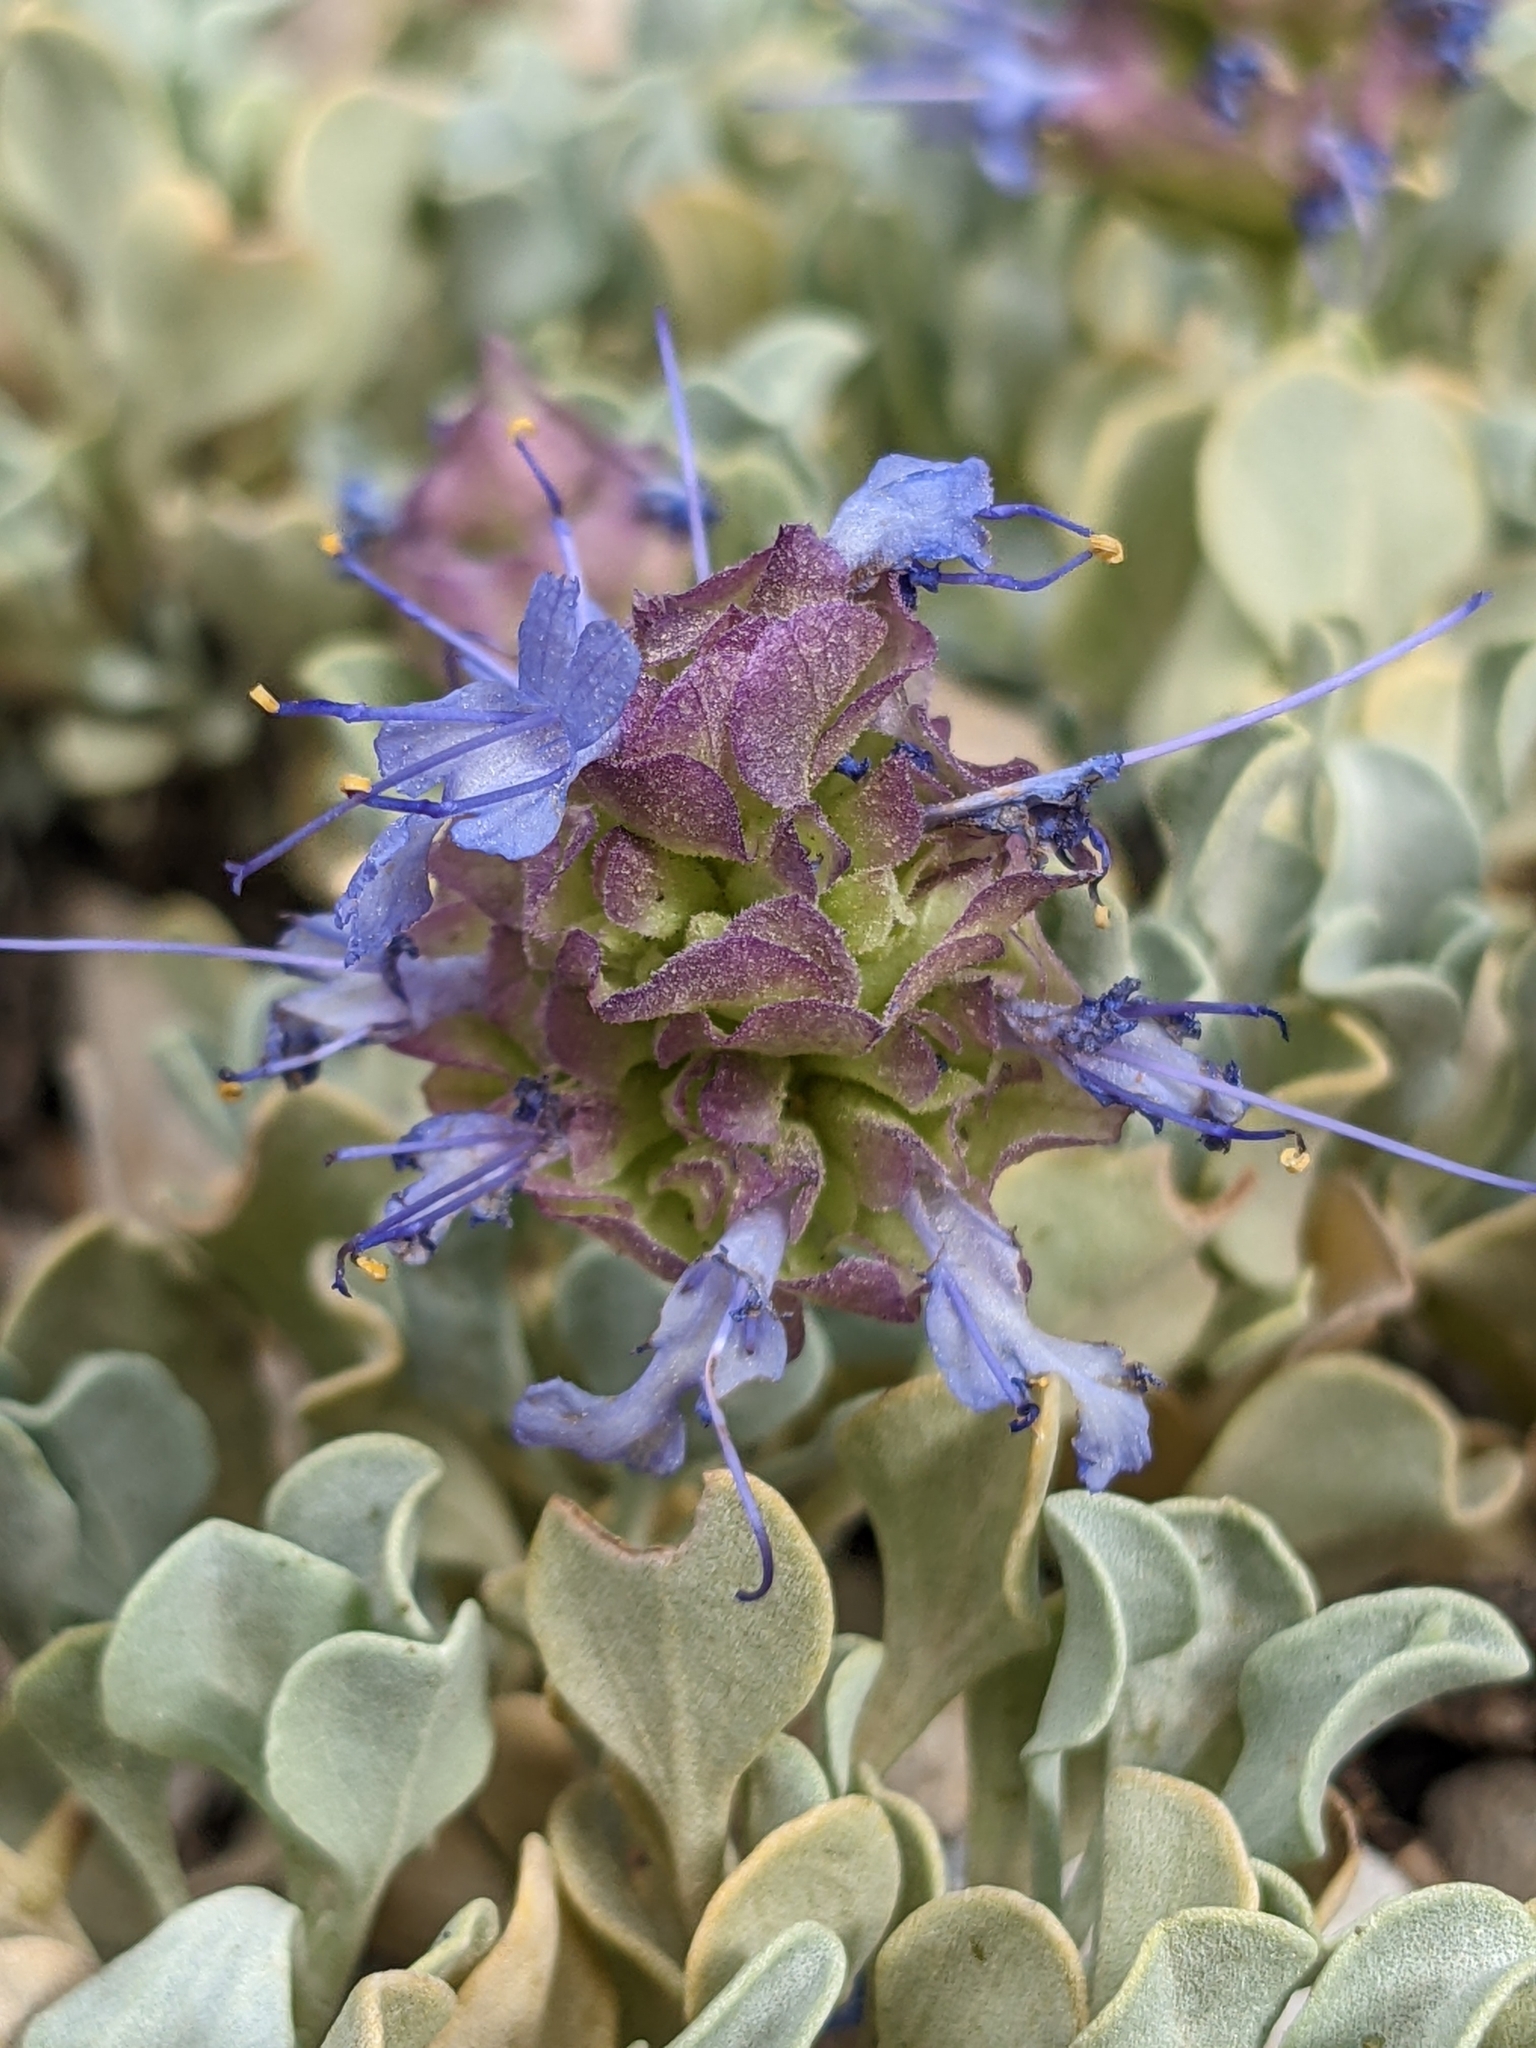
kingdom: Plantae
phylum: Tracheophyta
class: Magnoliopsida
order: Lamiales
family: Lamiaceae
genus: Salvia
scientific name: Salvia dorrii
